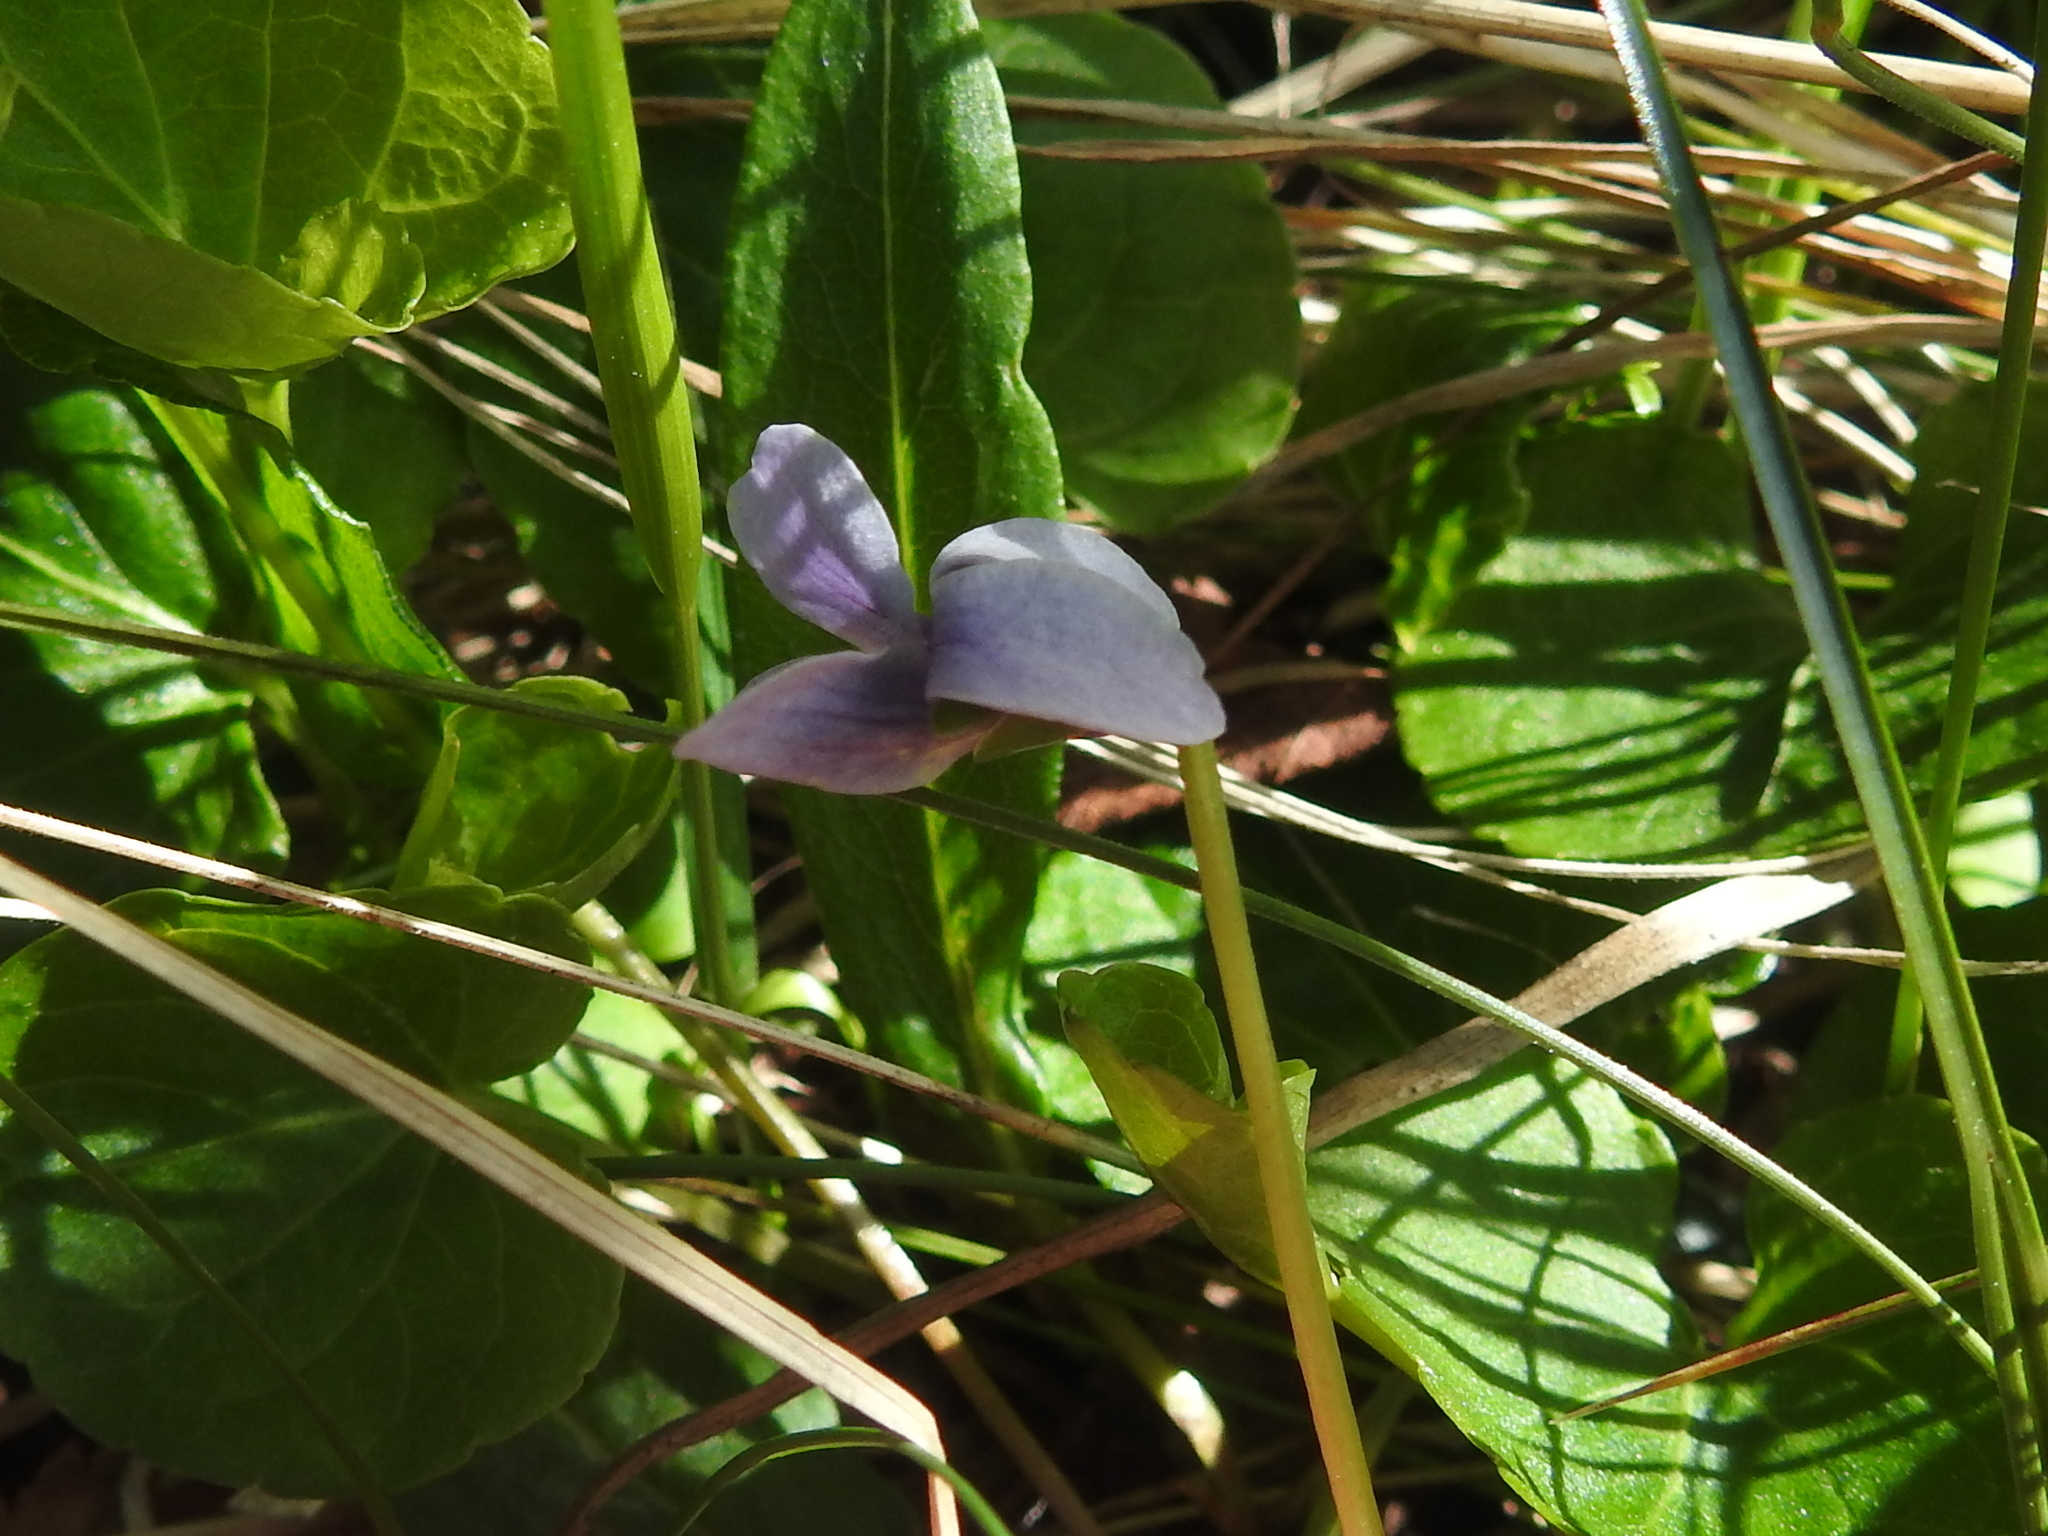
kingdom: Plantae
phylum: Tracheophyta
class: Magnoliopsida
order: Malpighiales
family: Violaceae
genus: Viola
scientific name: Viola palustris
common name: Marsh violet
